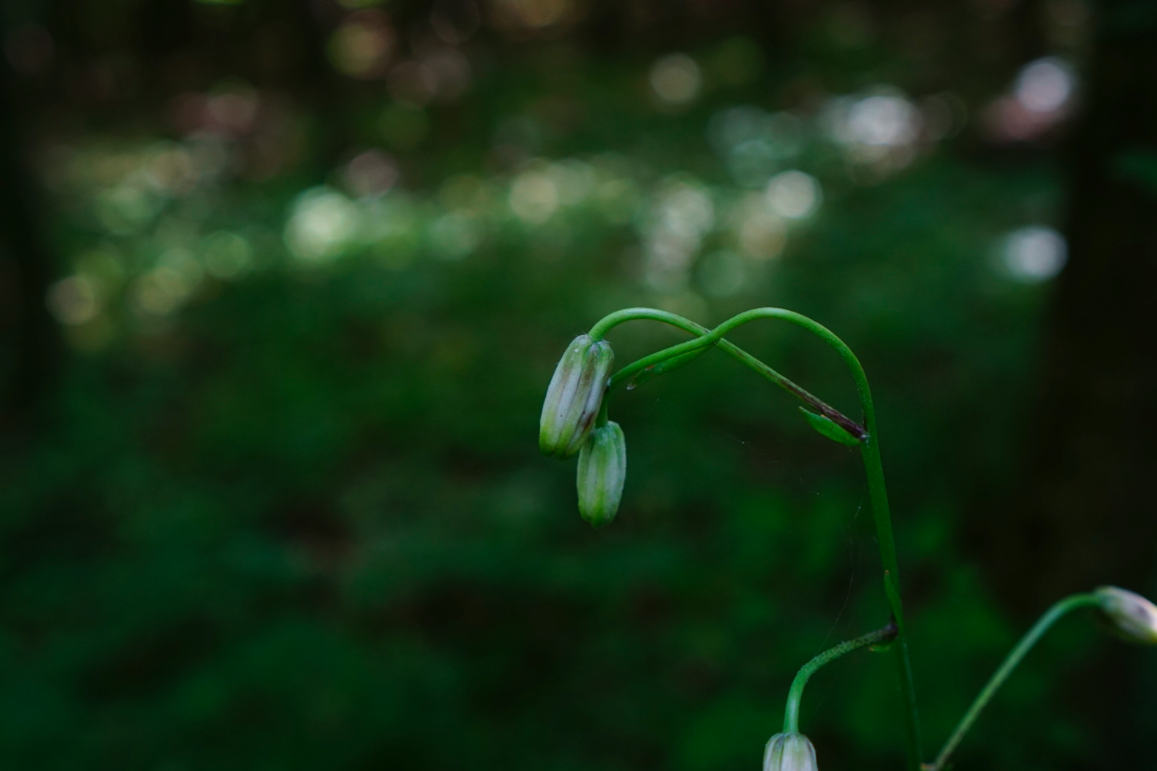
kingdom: Plantae
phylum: Tracheophyta
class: Liliopsida
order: Liliales
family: Liliaceae
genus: Lilium
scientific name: Lilium martagon
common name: Martagon lily
